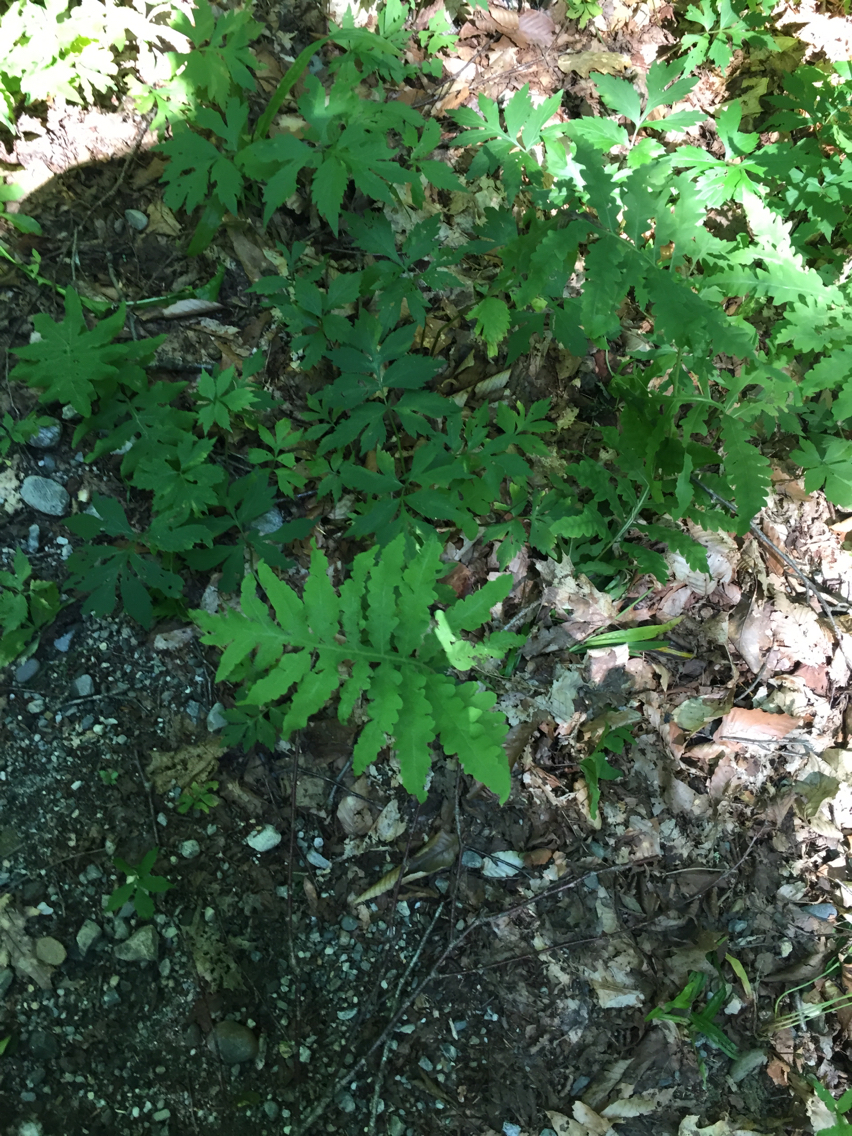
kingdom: Plantae
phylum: Tracheophyta
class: Polypodiopsida
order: Polypodiales
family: Onocleaceae
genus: Onoclea
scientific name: Onoclea sensibilis
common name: Sensitive fern
